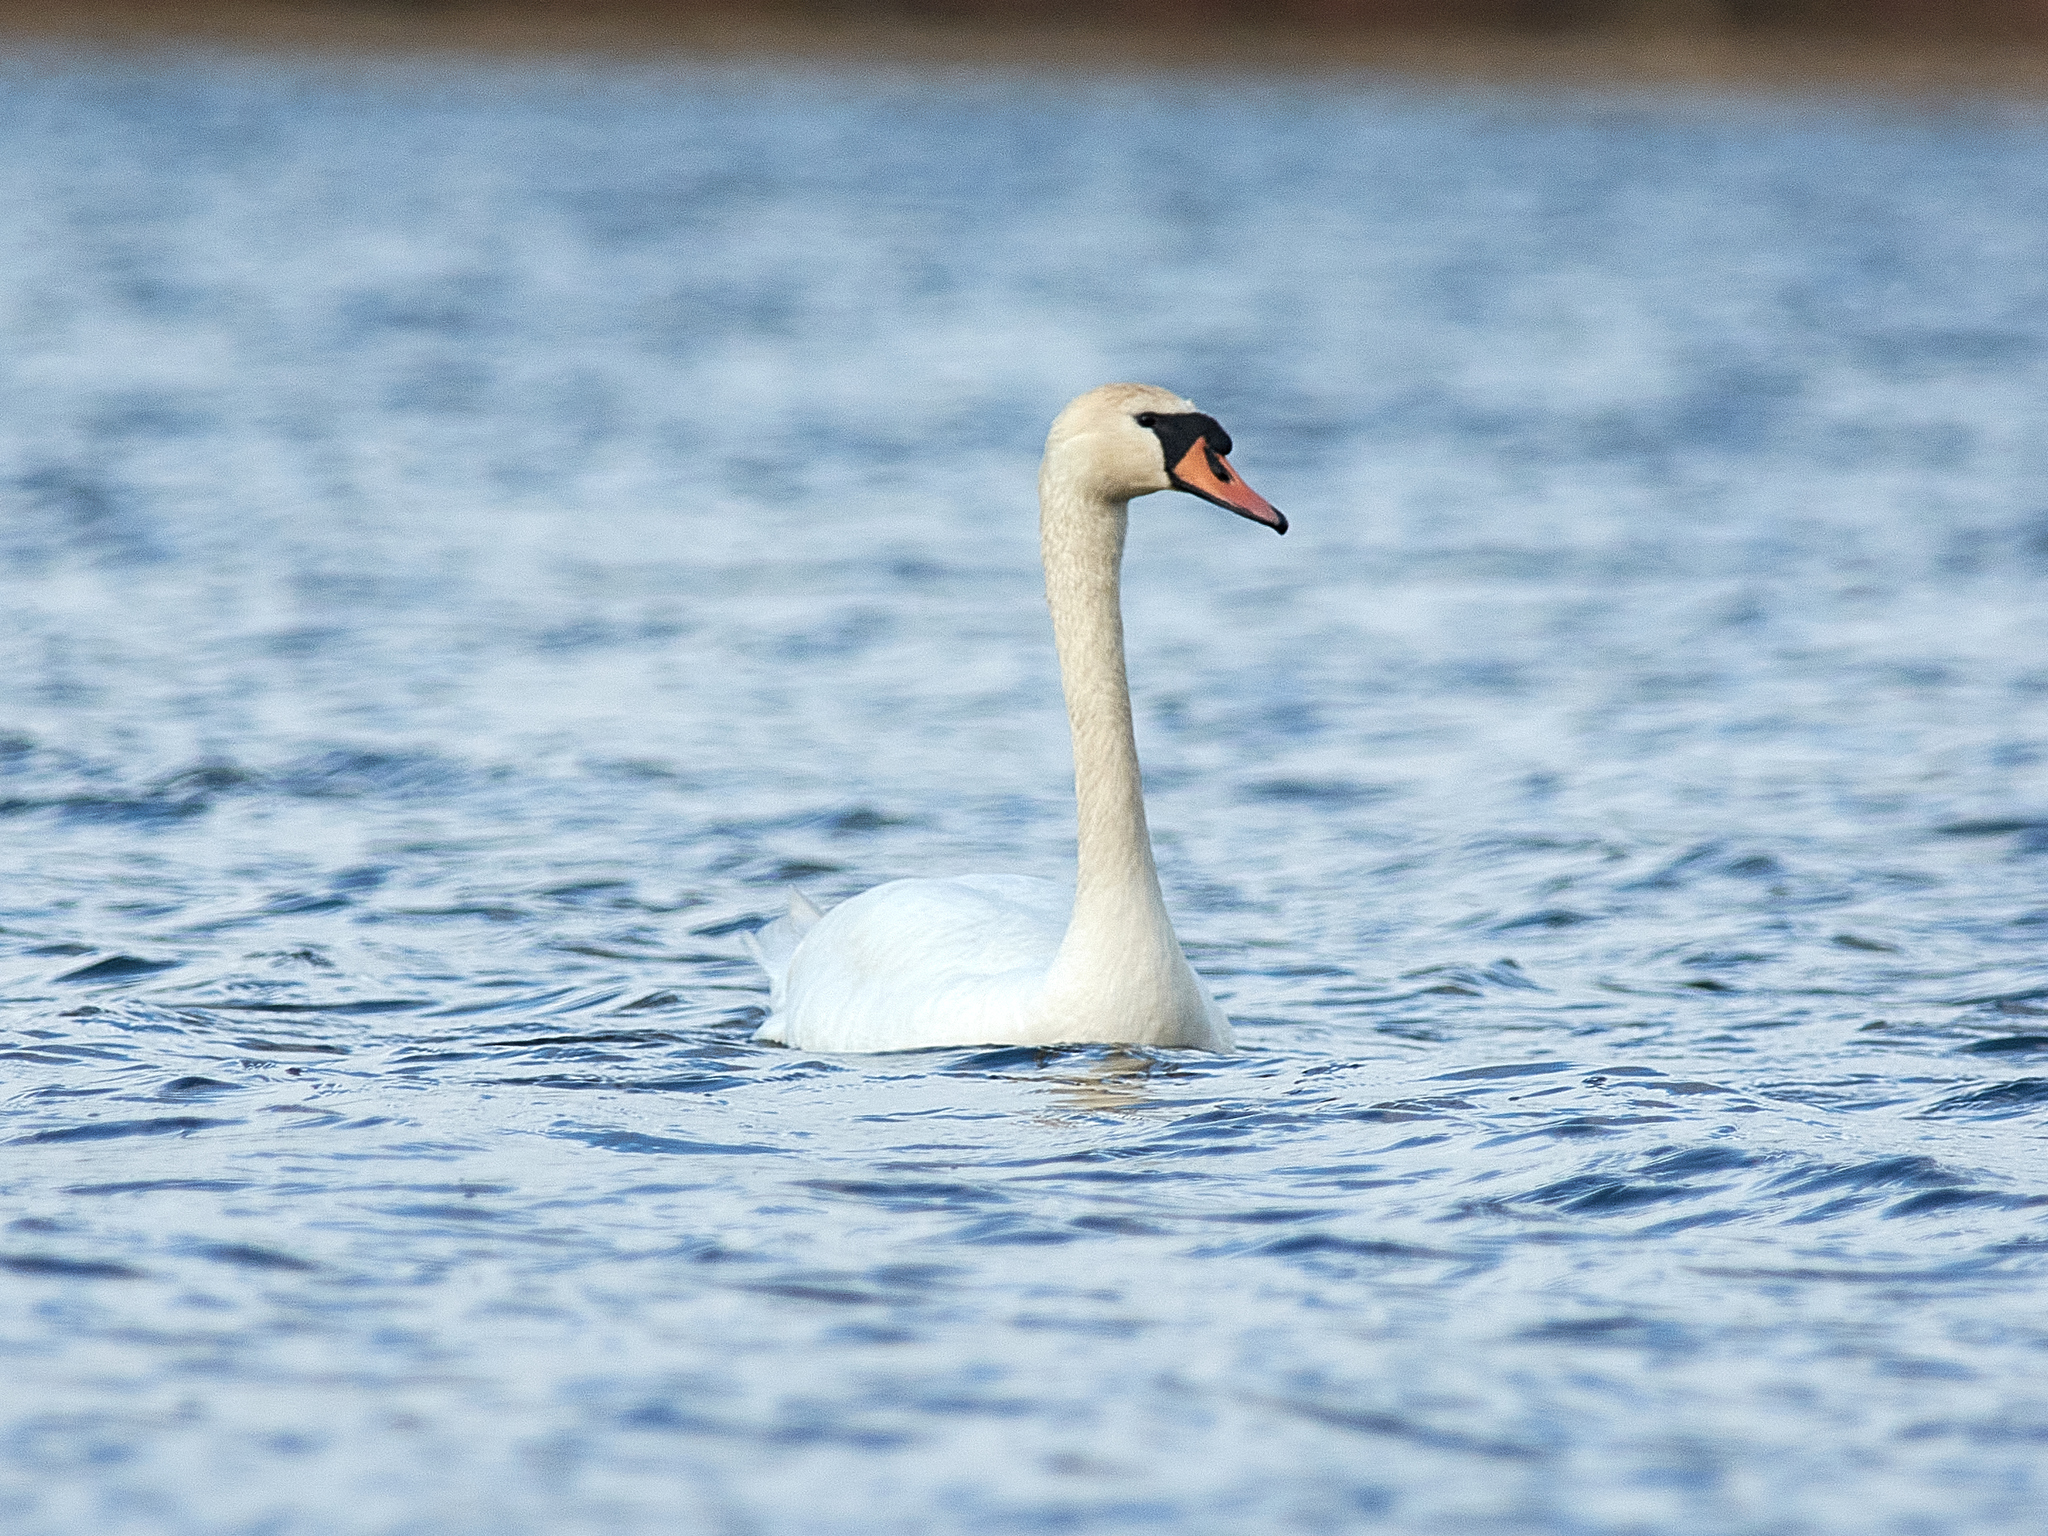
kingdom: Animalia
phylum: Chordata
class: Aves
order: Anseriformes
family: Anatidae
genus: Cygnus
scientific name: Cygnus olor
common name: Mute swan
